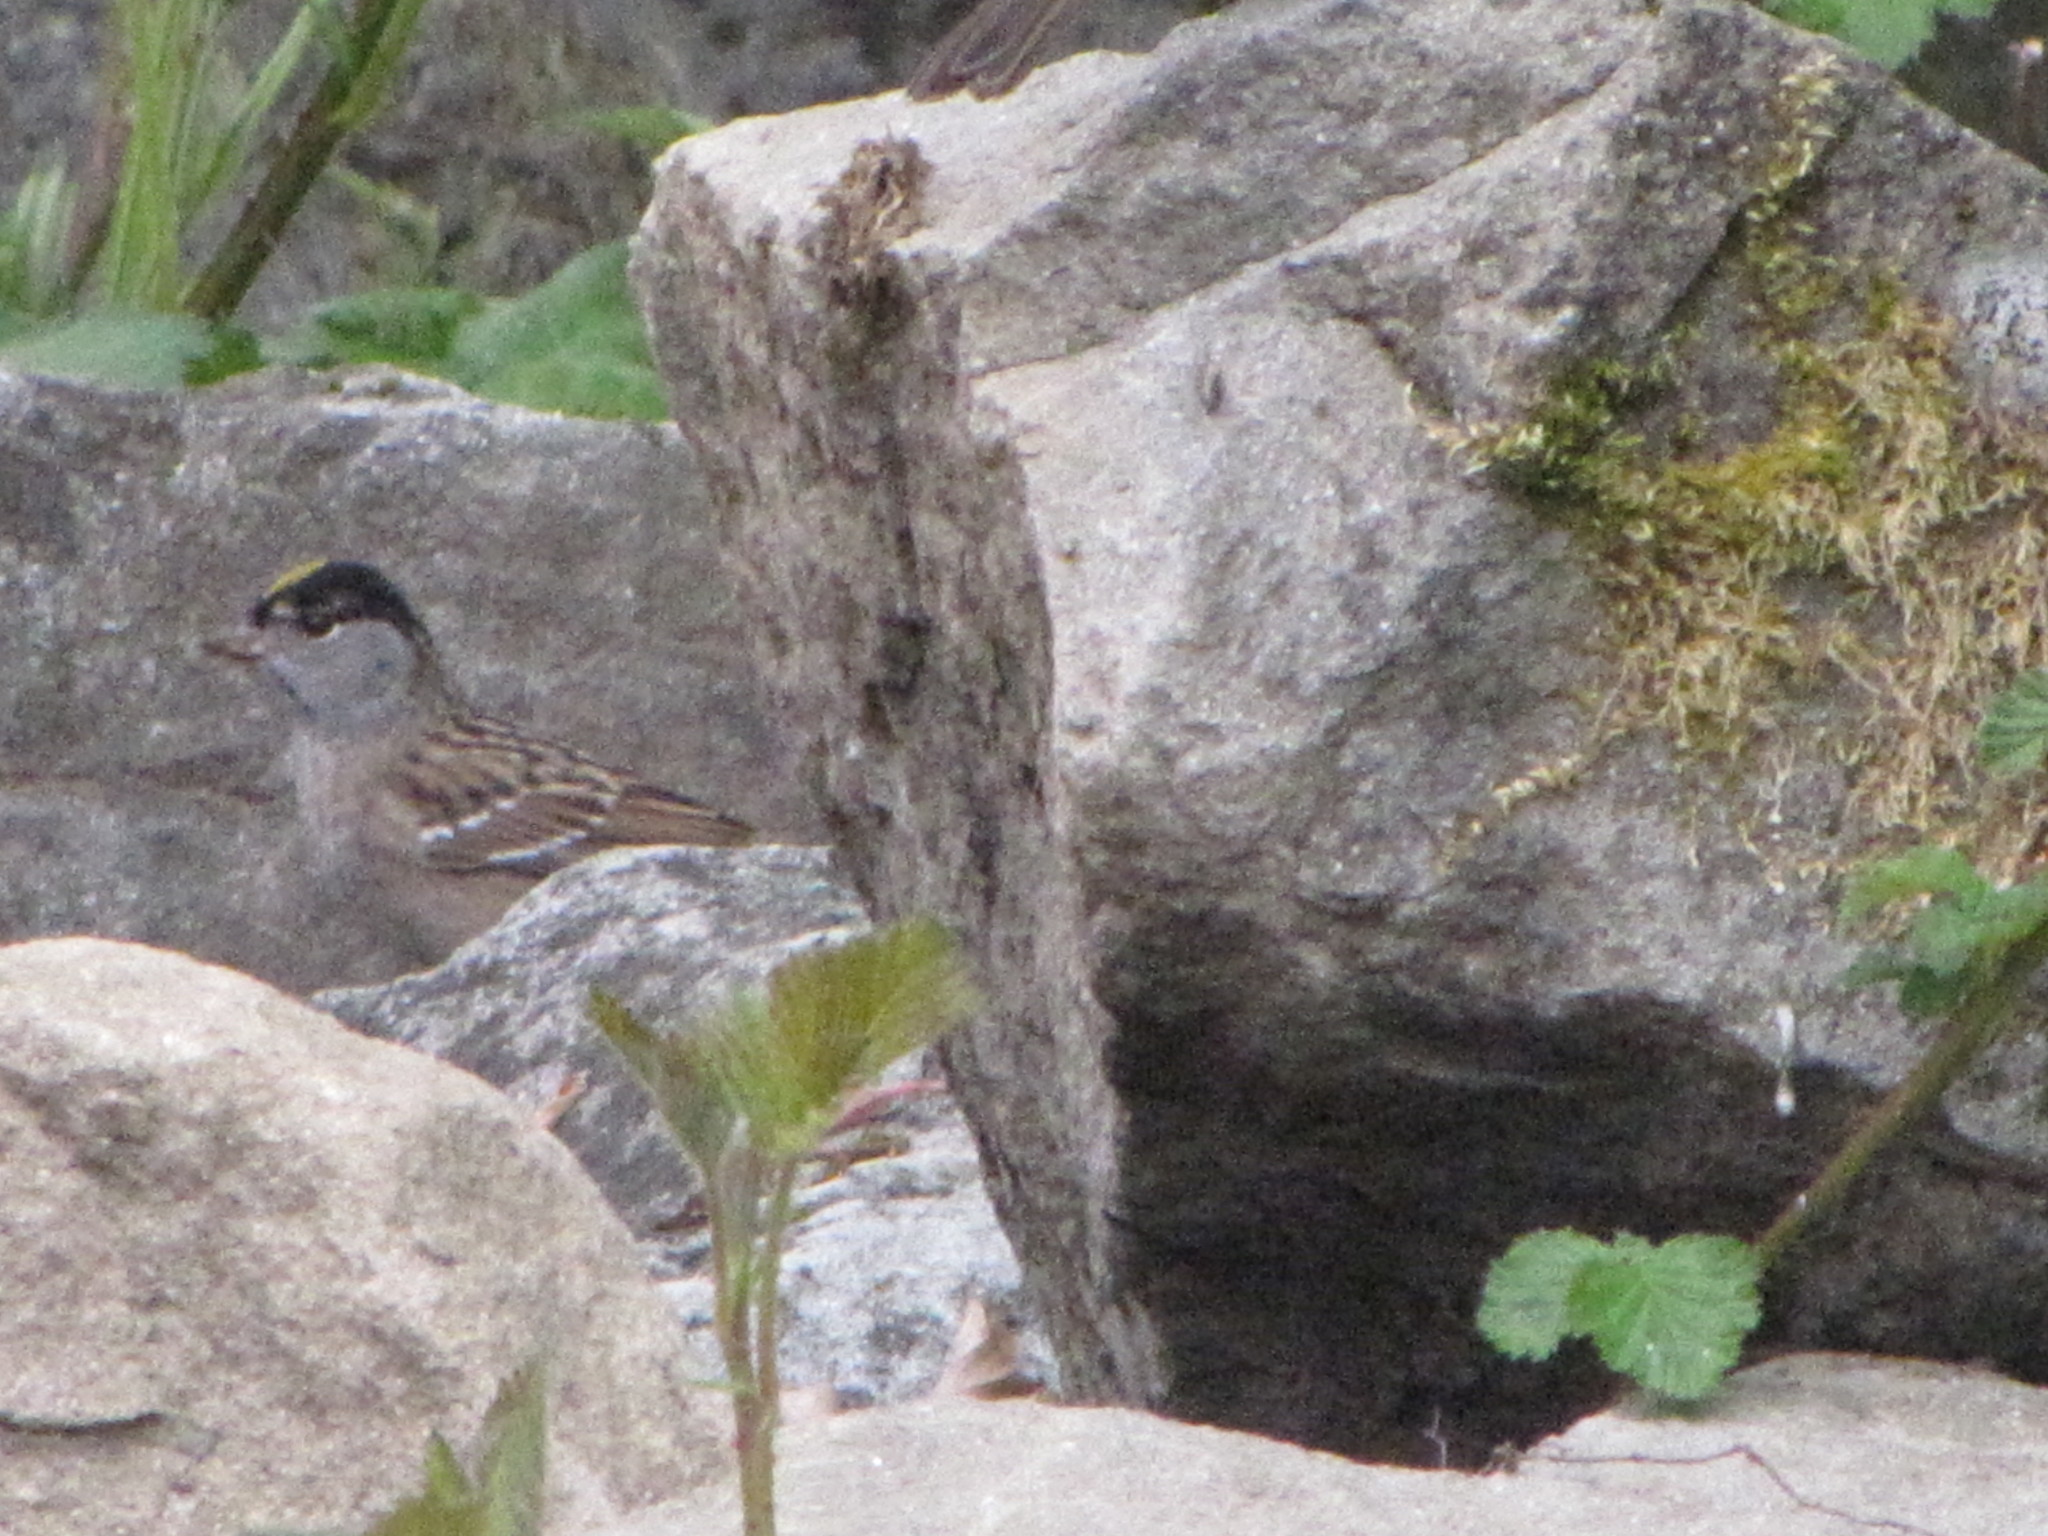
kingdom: Animalia
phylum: Chordata
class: Aves
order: Passeriformes
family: Passerellidae
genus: Zonotrichia
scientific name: Zonotrichia atricapilla
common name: Golden-crowned sparrow
